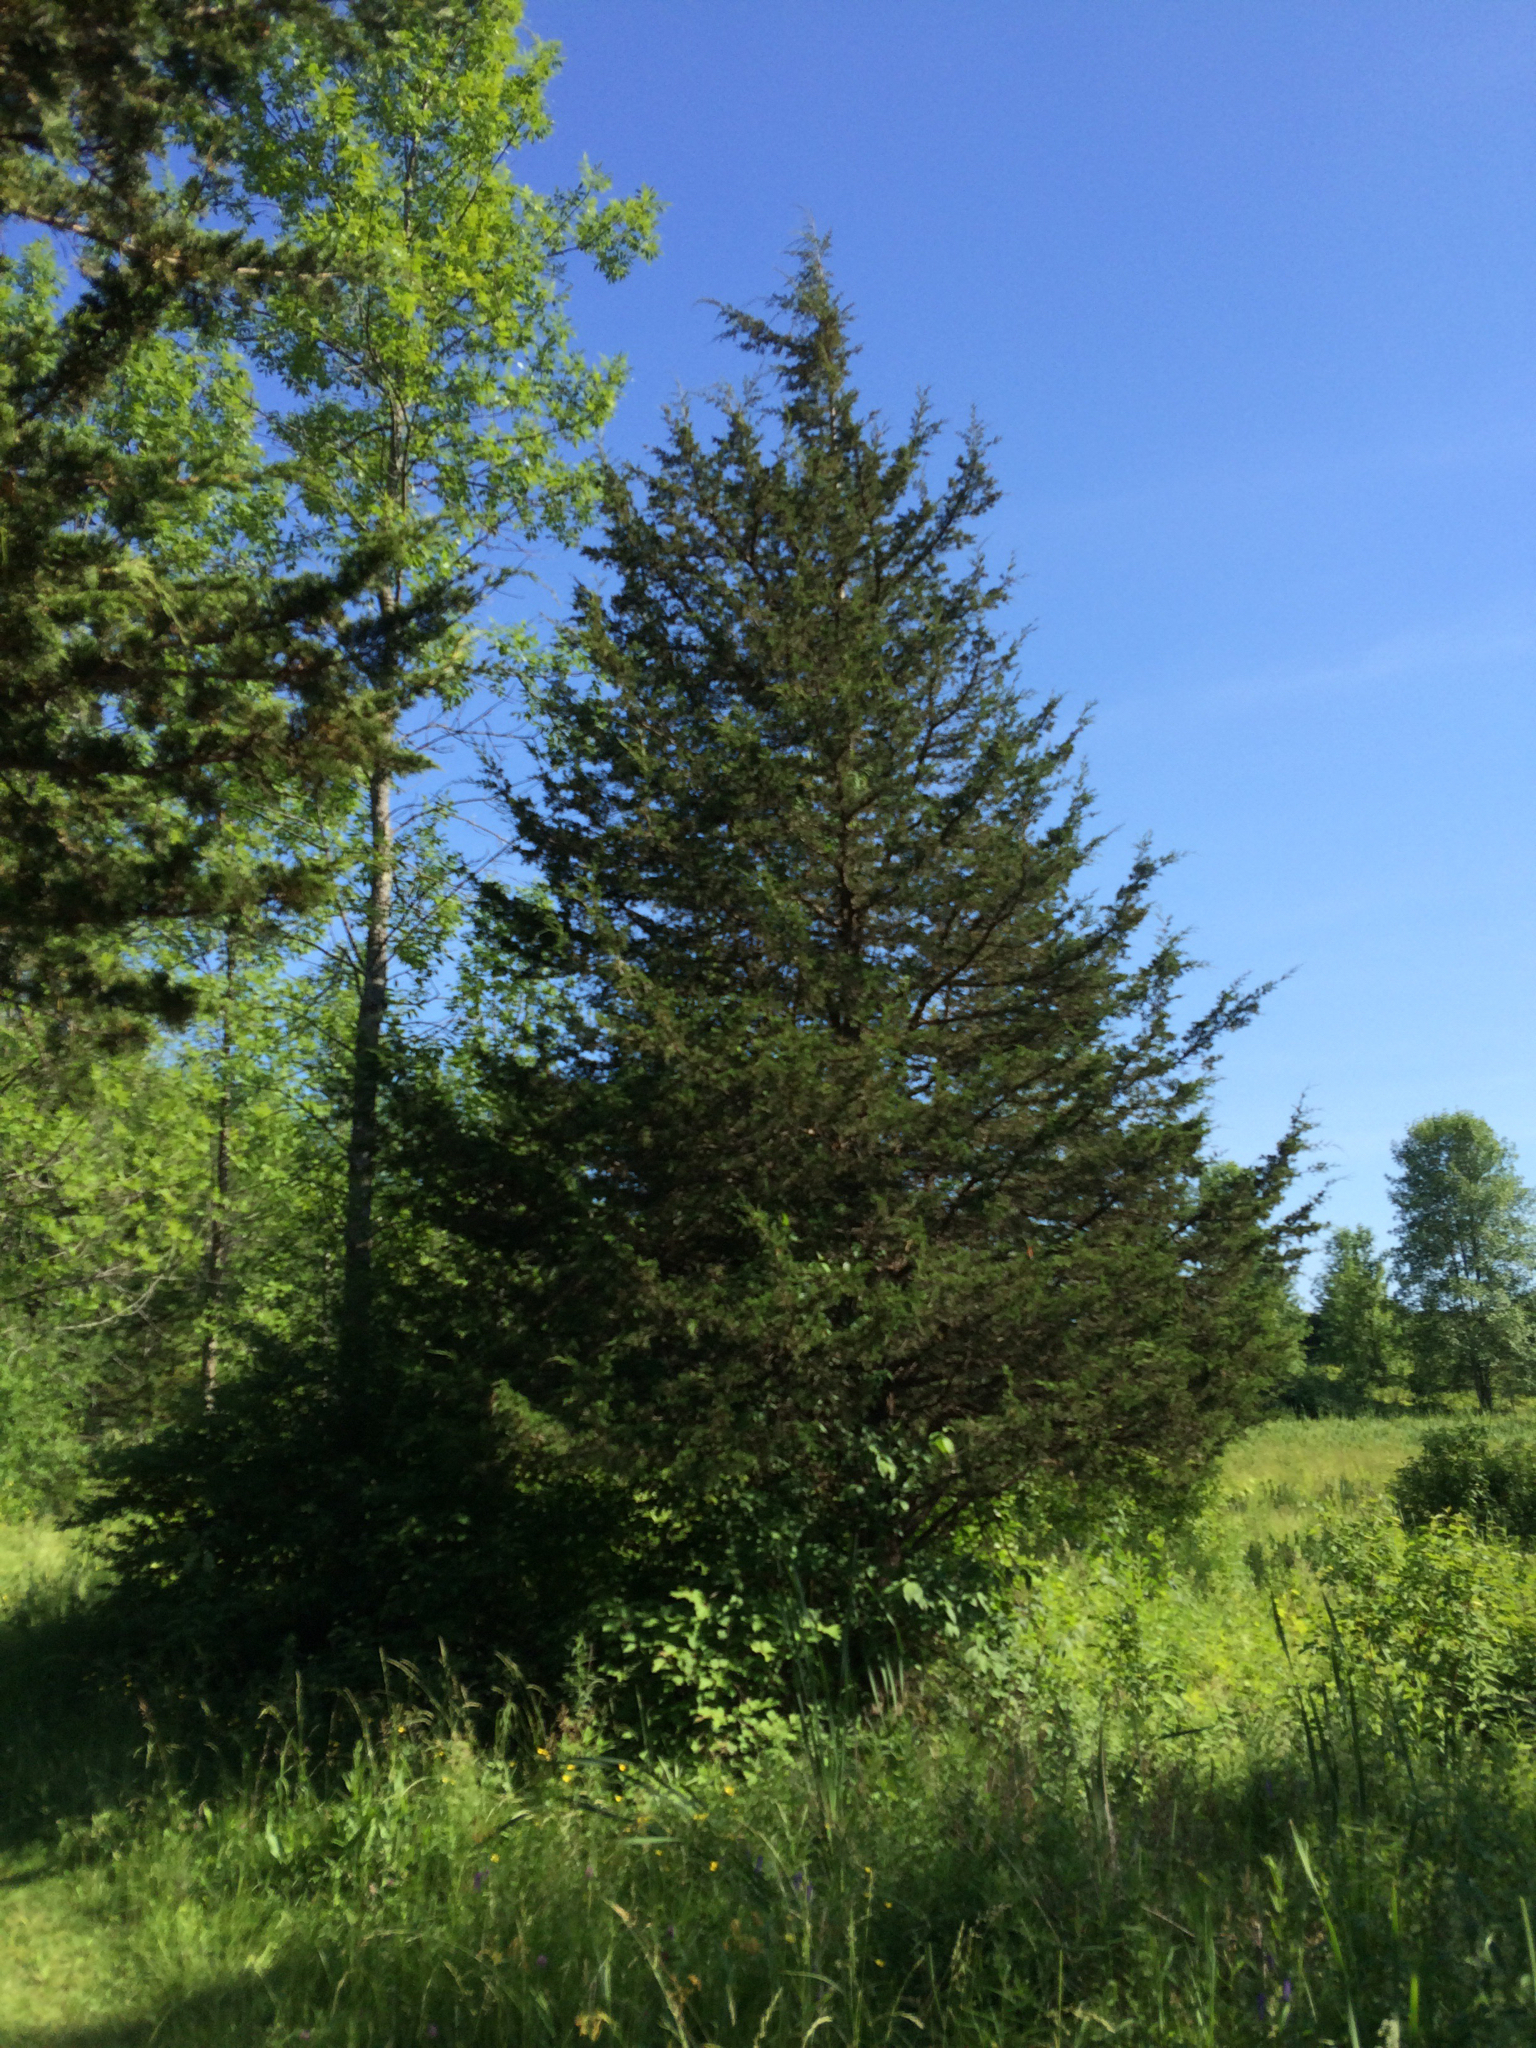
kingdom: Plantae
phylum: Tracheophyta
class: Pinopsida
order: Pinales
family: Cupressaceae
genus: Juniperus
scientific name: Juniperus virginiana
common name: Red juniper
